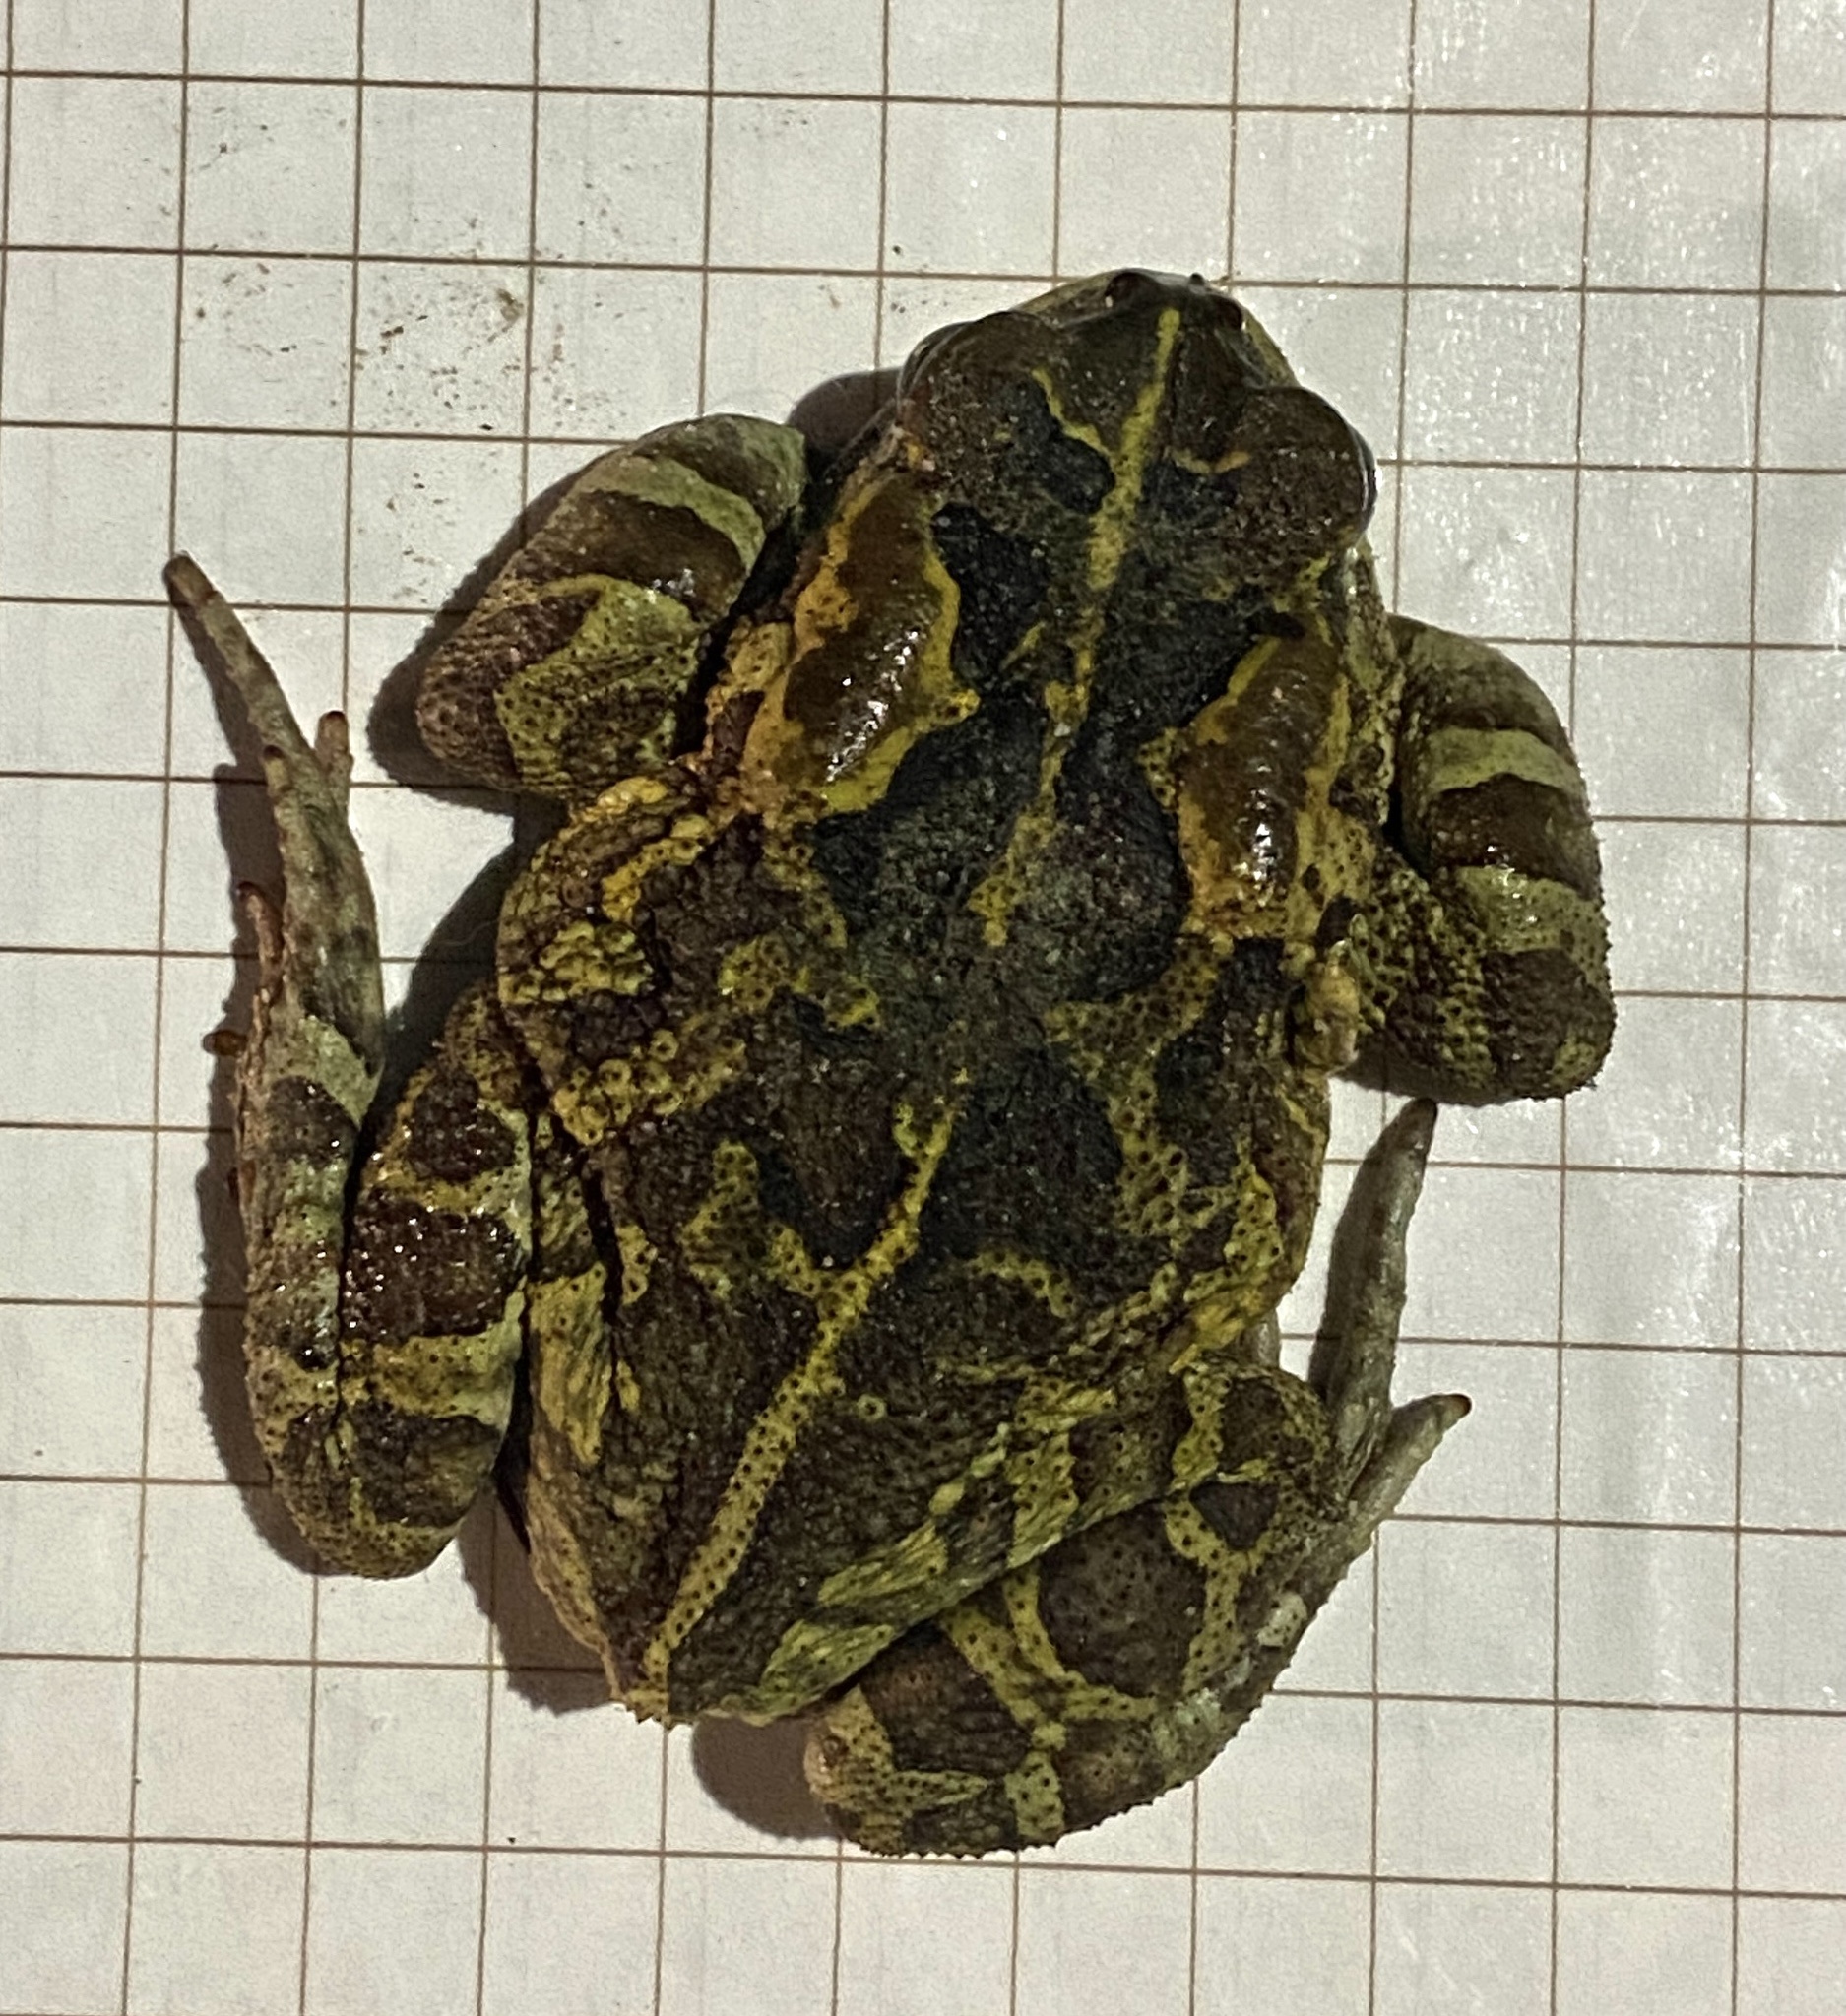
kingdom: Animalia
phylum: Chordata
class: Amphibia
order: Anura
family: Bufonidae
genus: Sclerophrys
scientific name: Sclerophrys pantherina
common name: Panther toad
